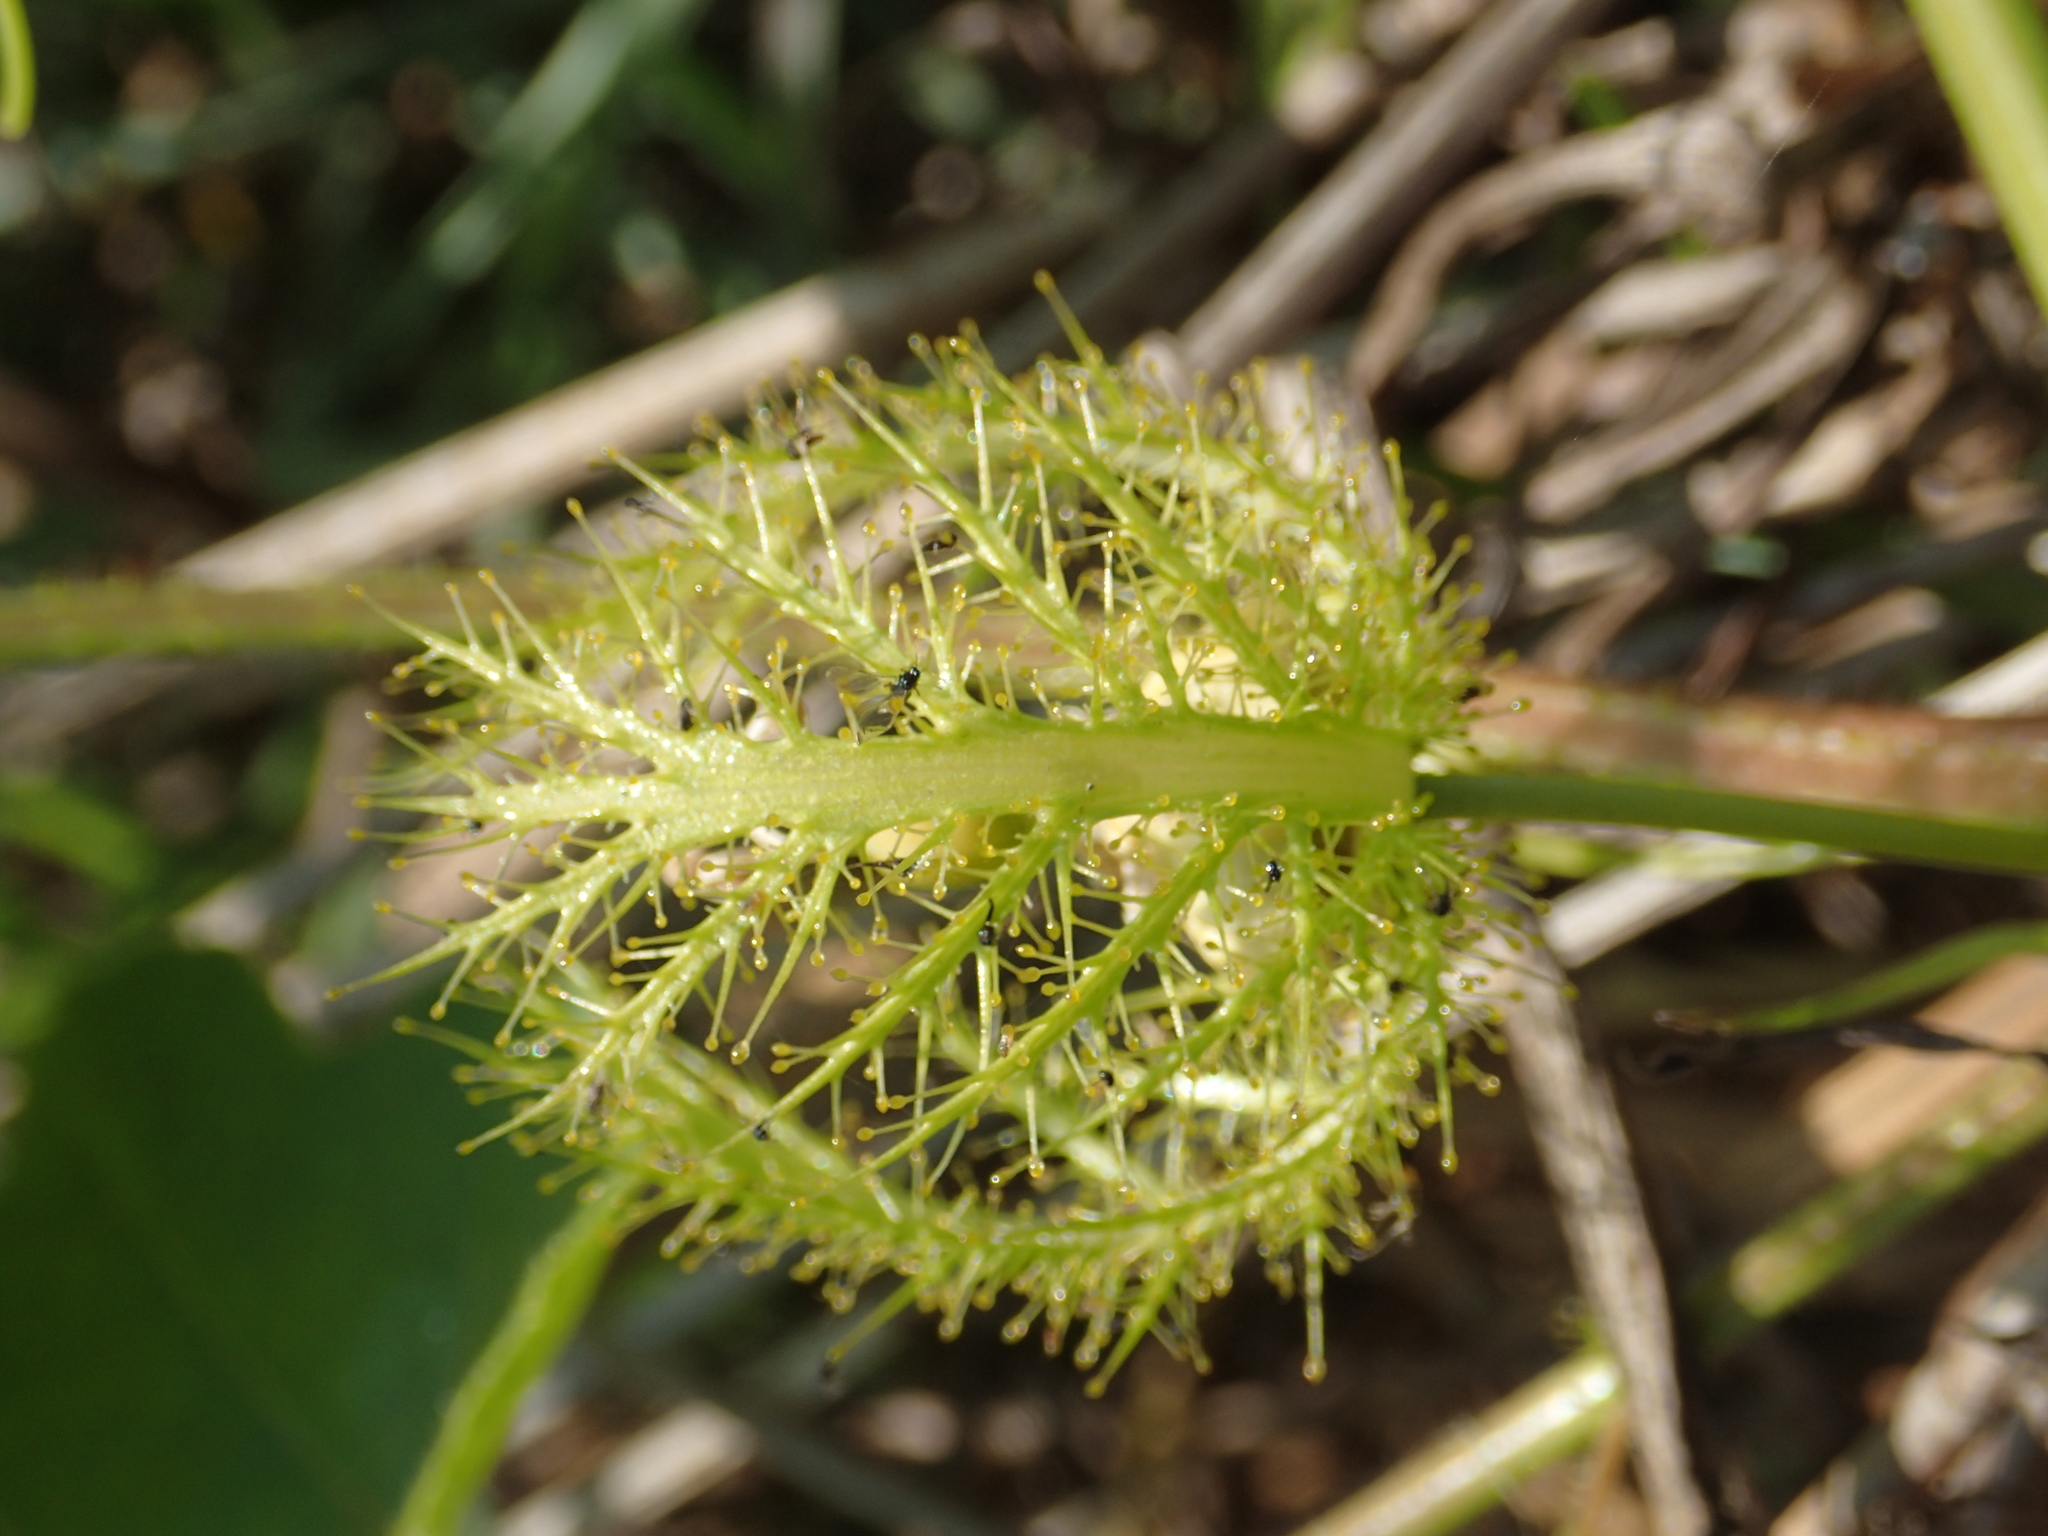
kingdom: Plantae
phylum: Tracheophyta
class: Magnoliopsida
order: Malpighiales
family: Passifloraceae
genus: Passiflora
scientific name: Passiflora vesicaria
